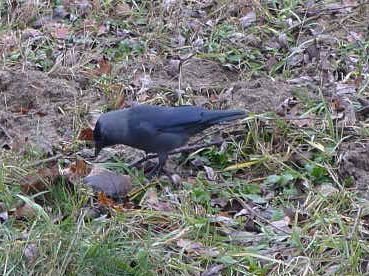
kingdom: Animalia
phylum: Chordata
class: Aves
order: Passeriformes
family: Corvidae
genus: Coloeus
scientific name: Coloeus monedula
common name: Western jackdaw
